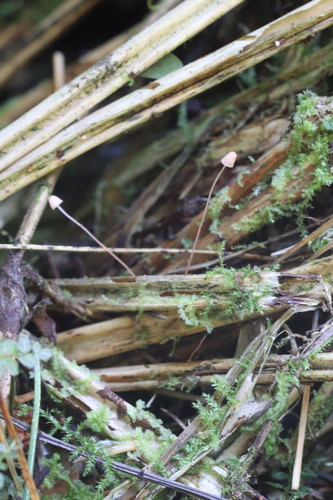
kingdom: Fungi
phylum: Basidiomycota
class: Agaricomycetes
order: Agaricales
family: Mycenaceae
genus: Mycena
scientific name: Mycena pterigena
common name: Ferny bonnet
